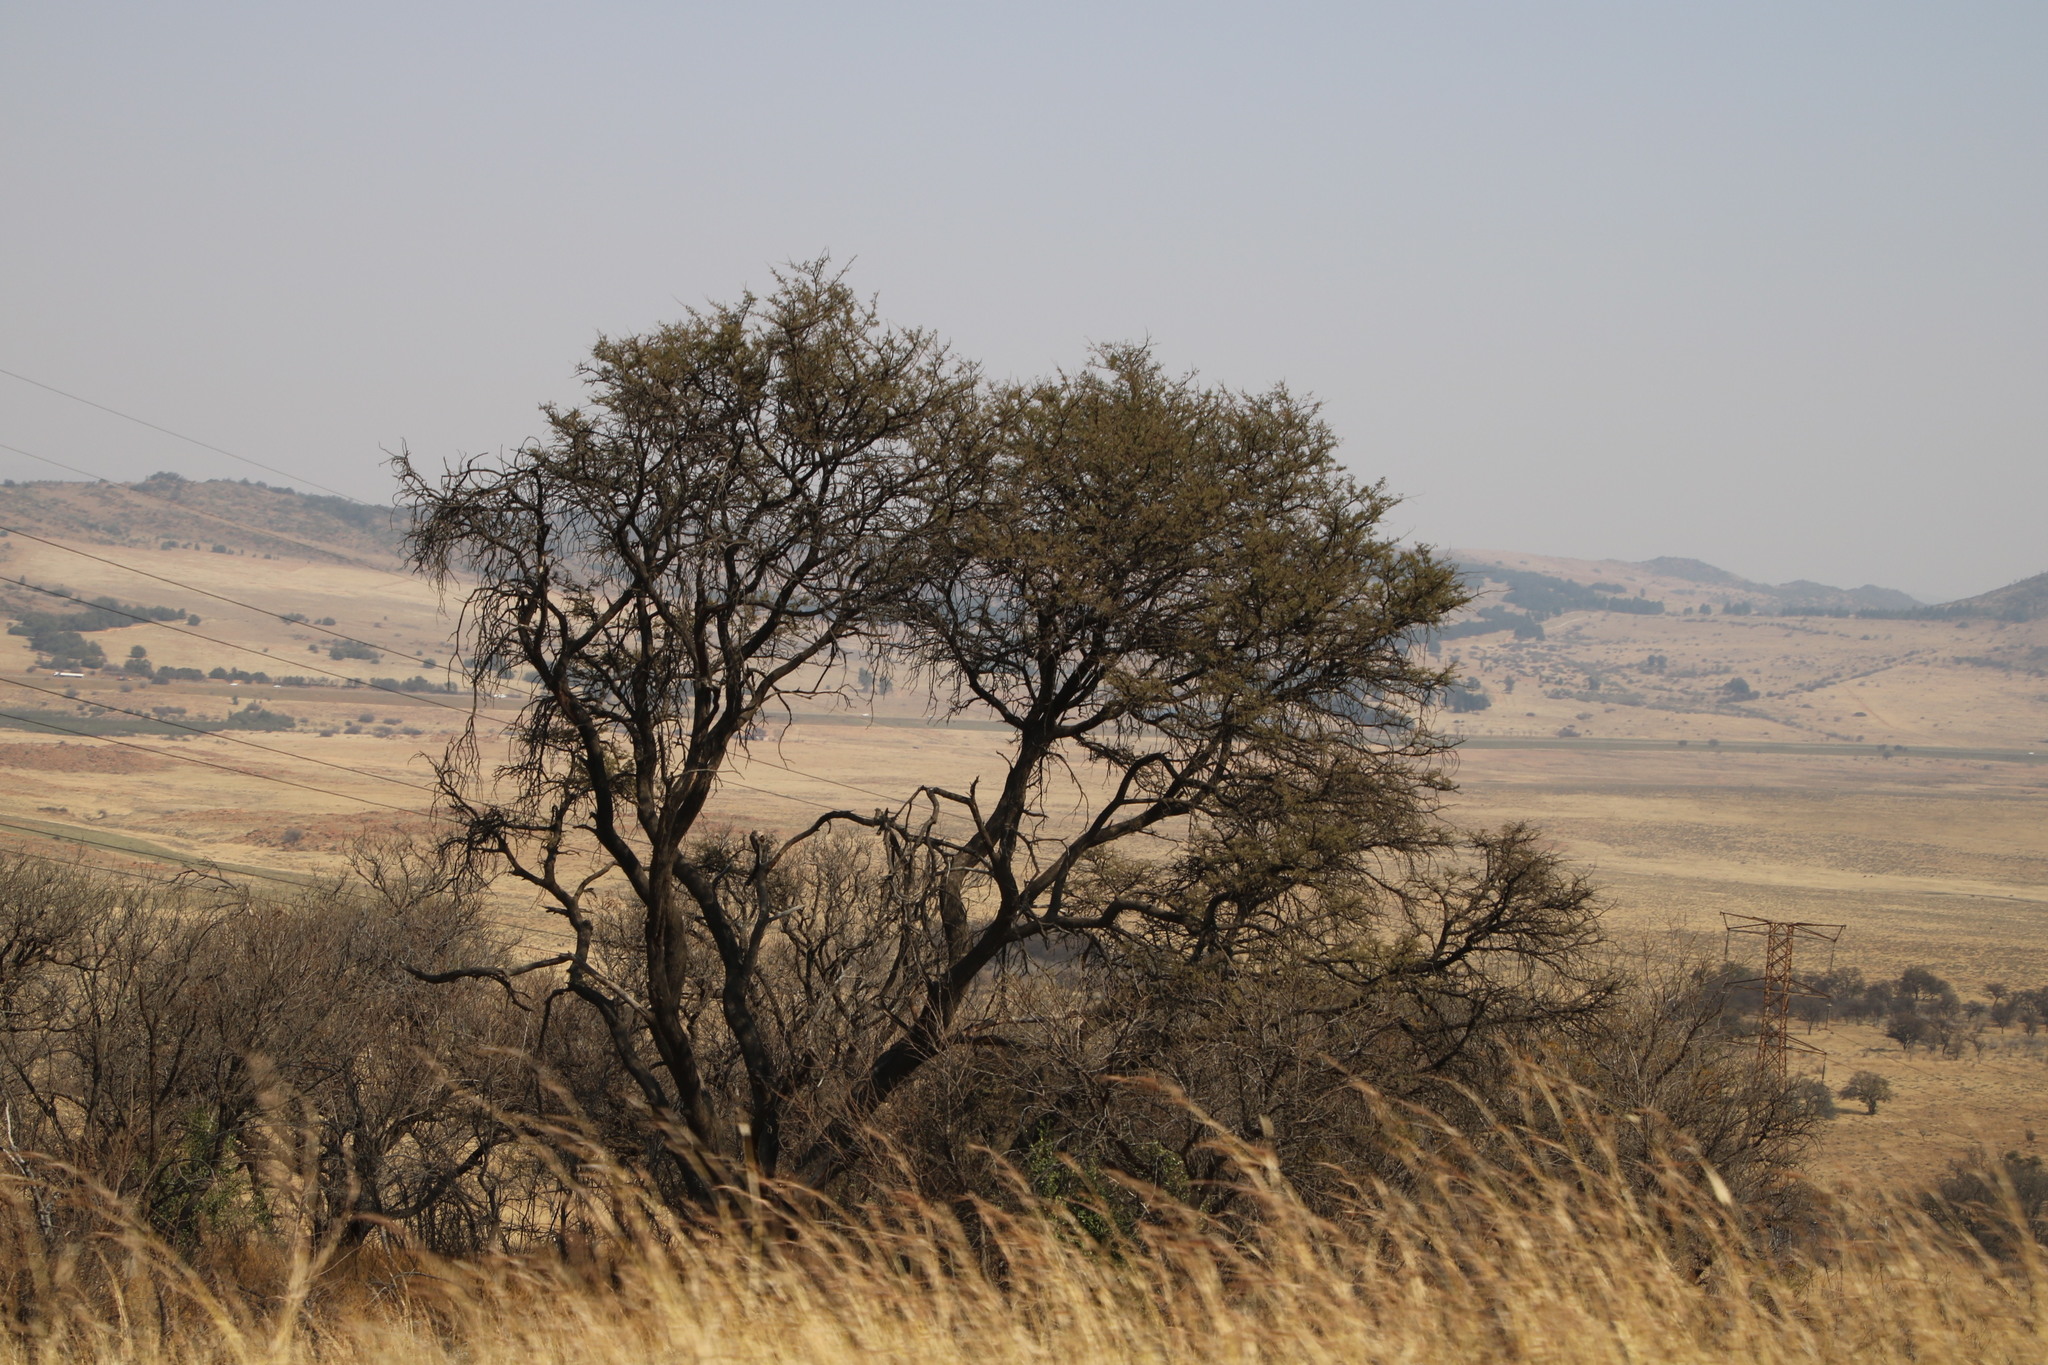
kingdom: Plantae
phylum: Tracheophyta
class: Magnoliopsida
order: Fabales
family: Fabaceae
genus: Vachellia
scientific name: Vachellia karroo
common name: Sweet thorn
